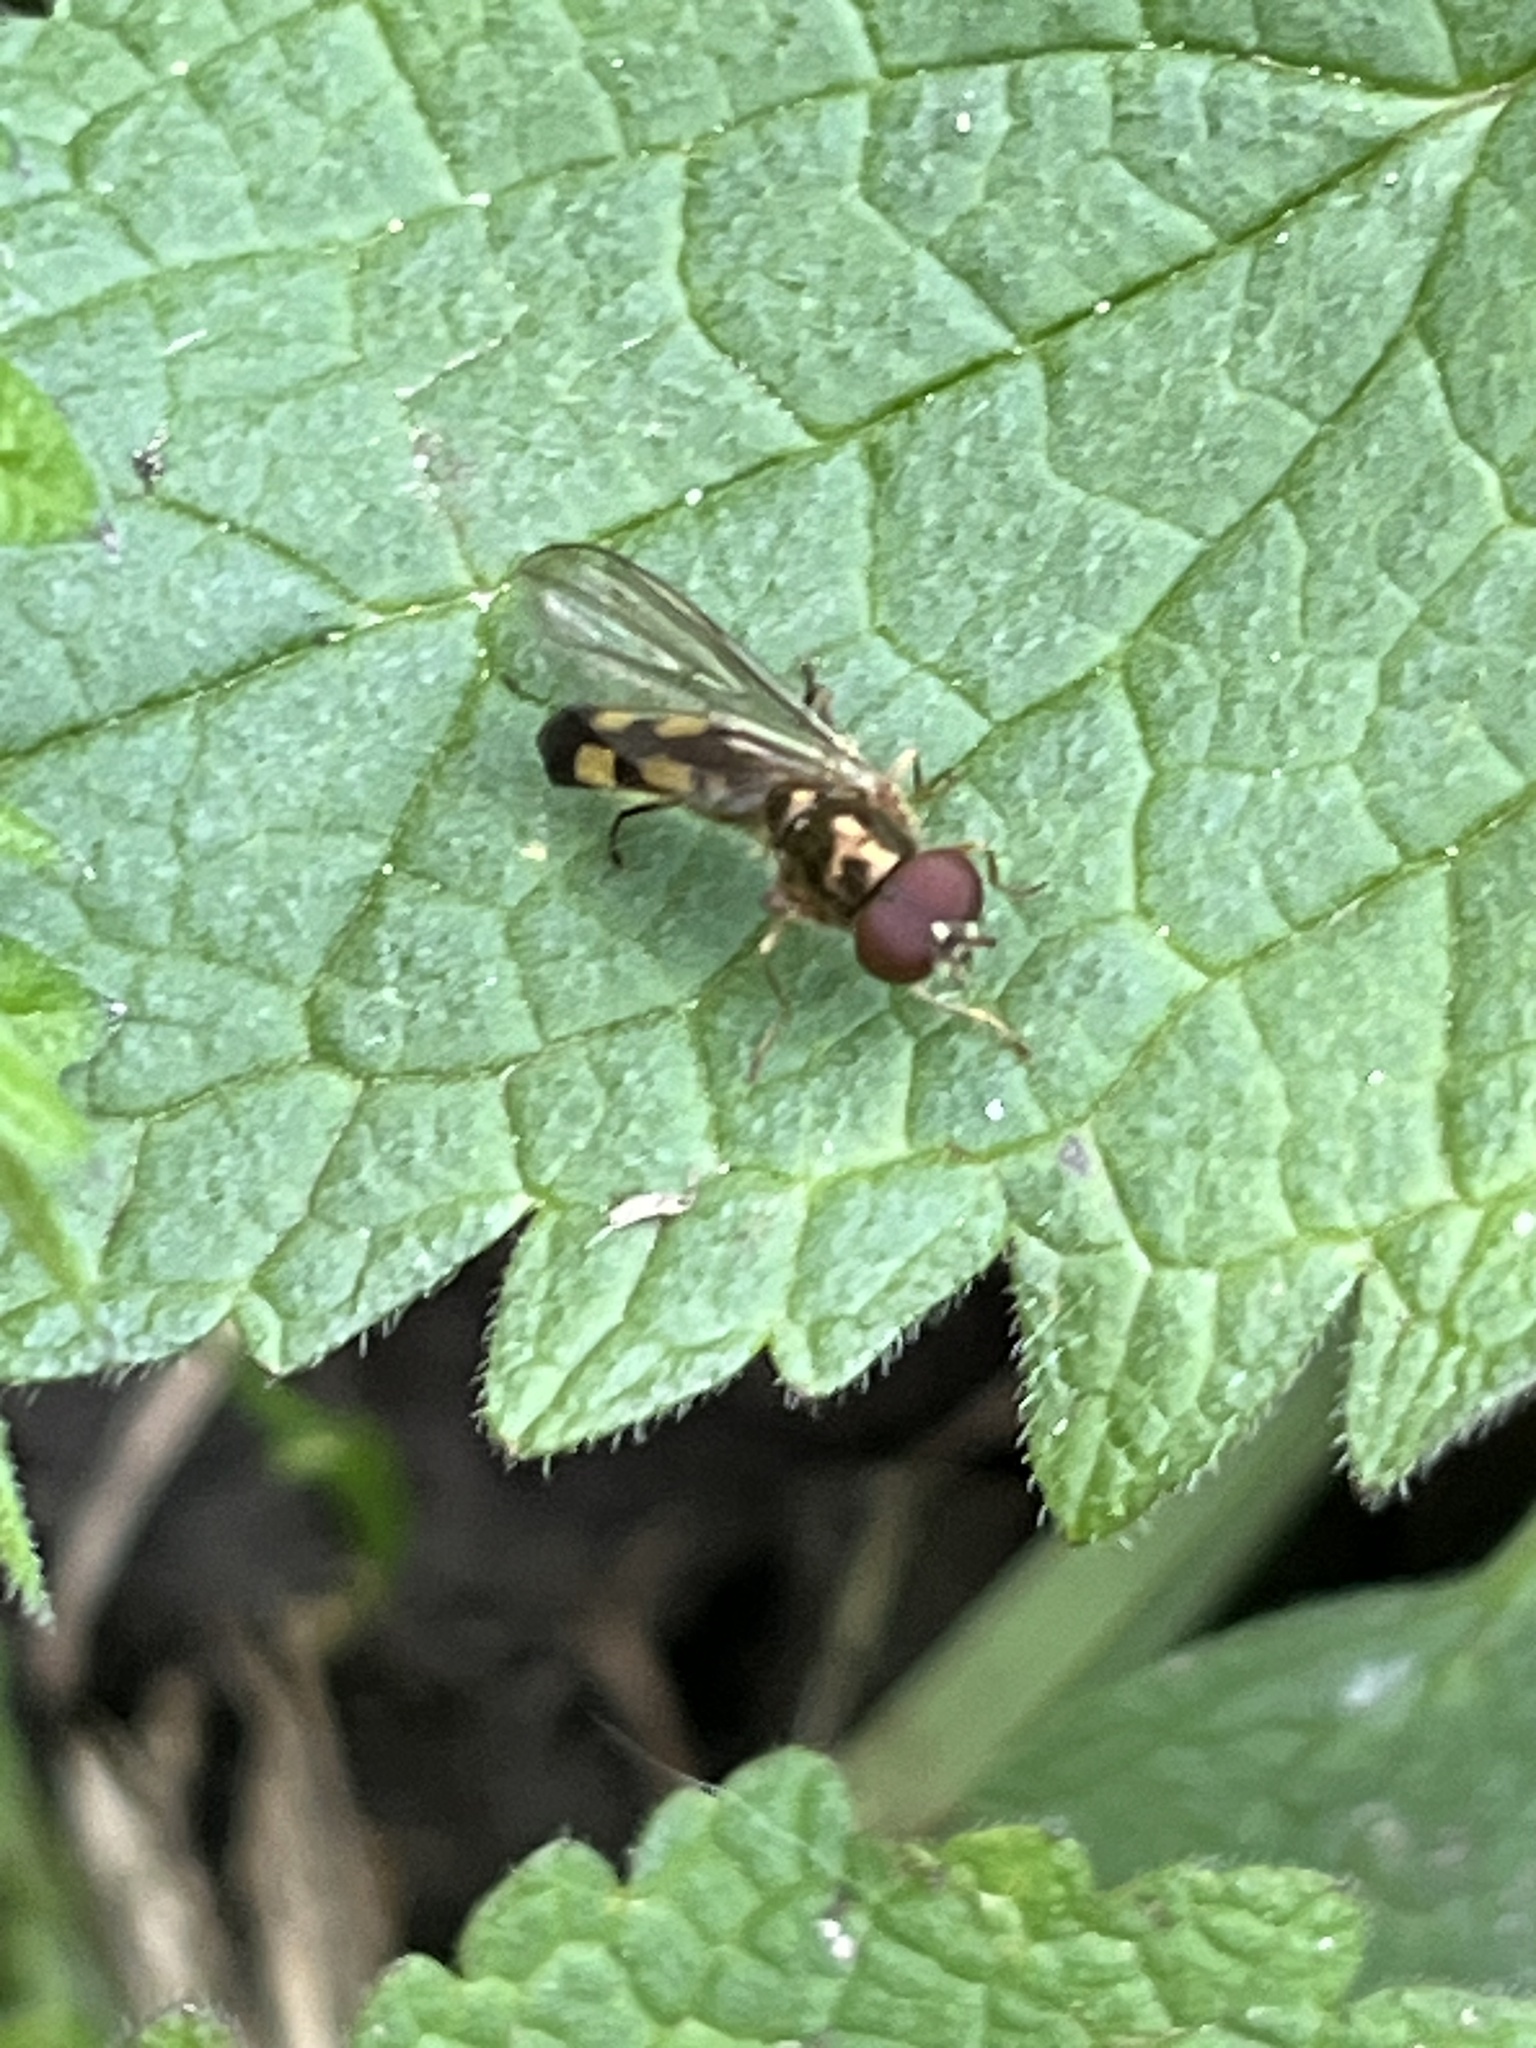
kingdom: Animalia
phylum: Arthropoda
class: Insecta
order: Diptera
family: Syrphidae
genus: Melanostoma
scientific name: Melanostoma
